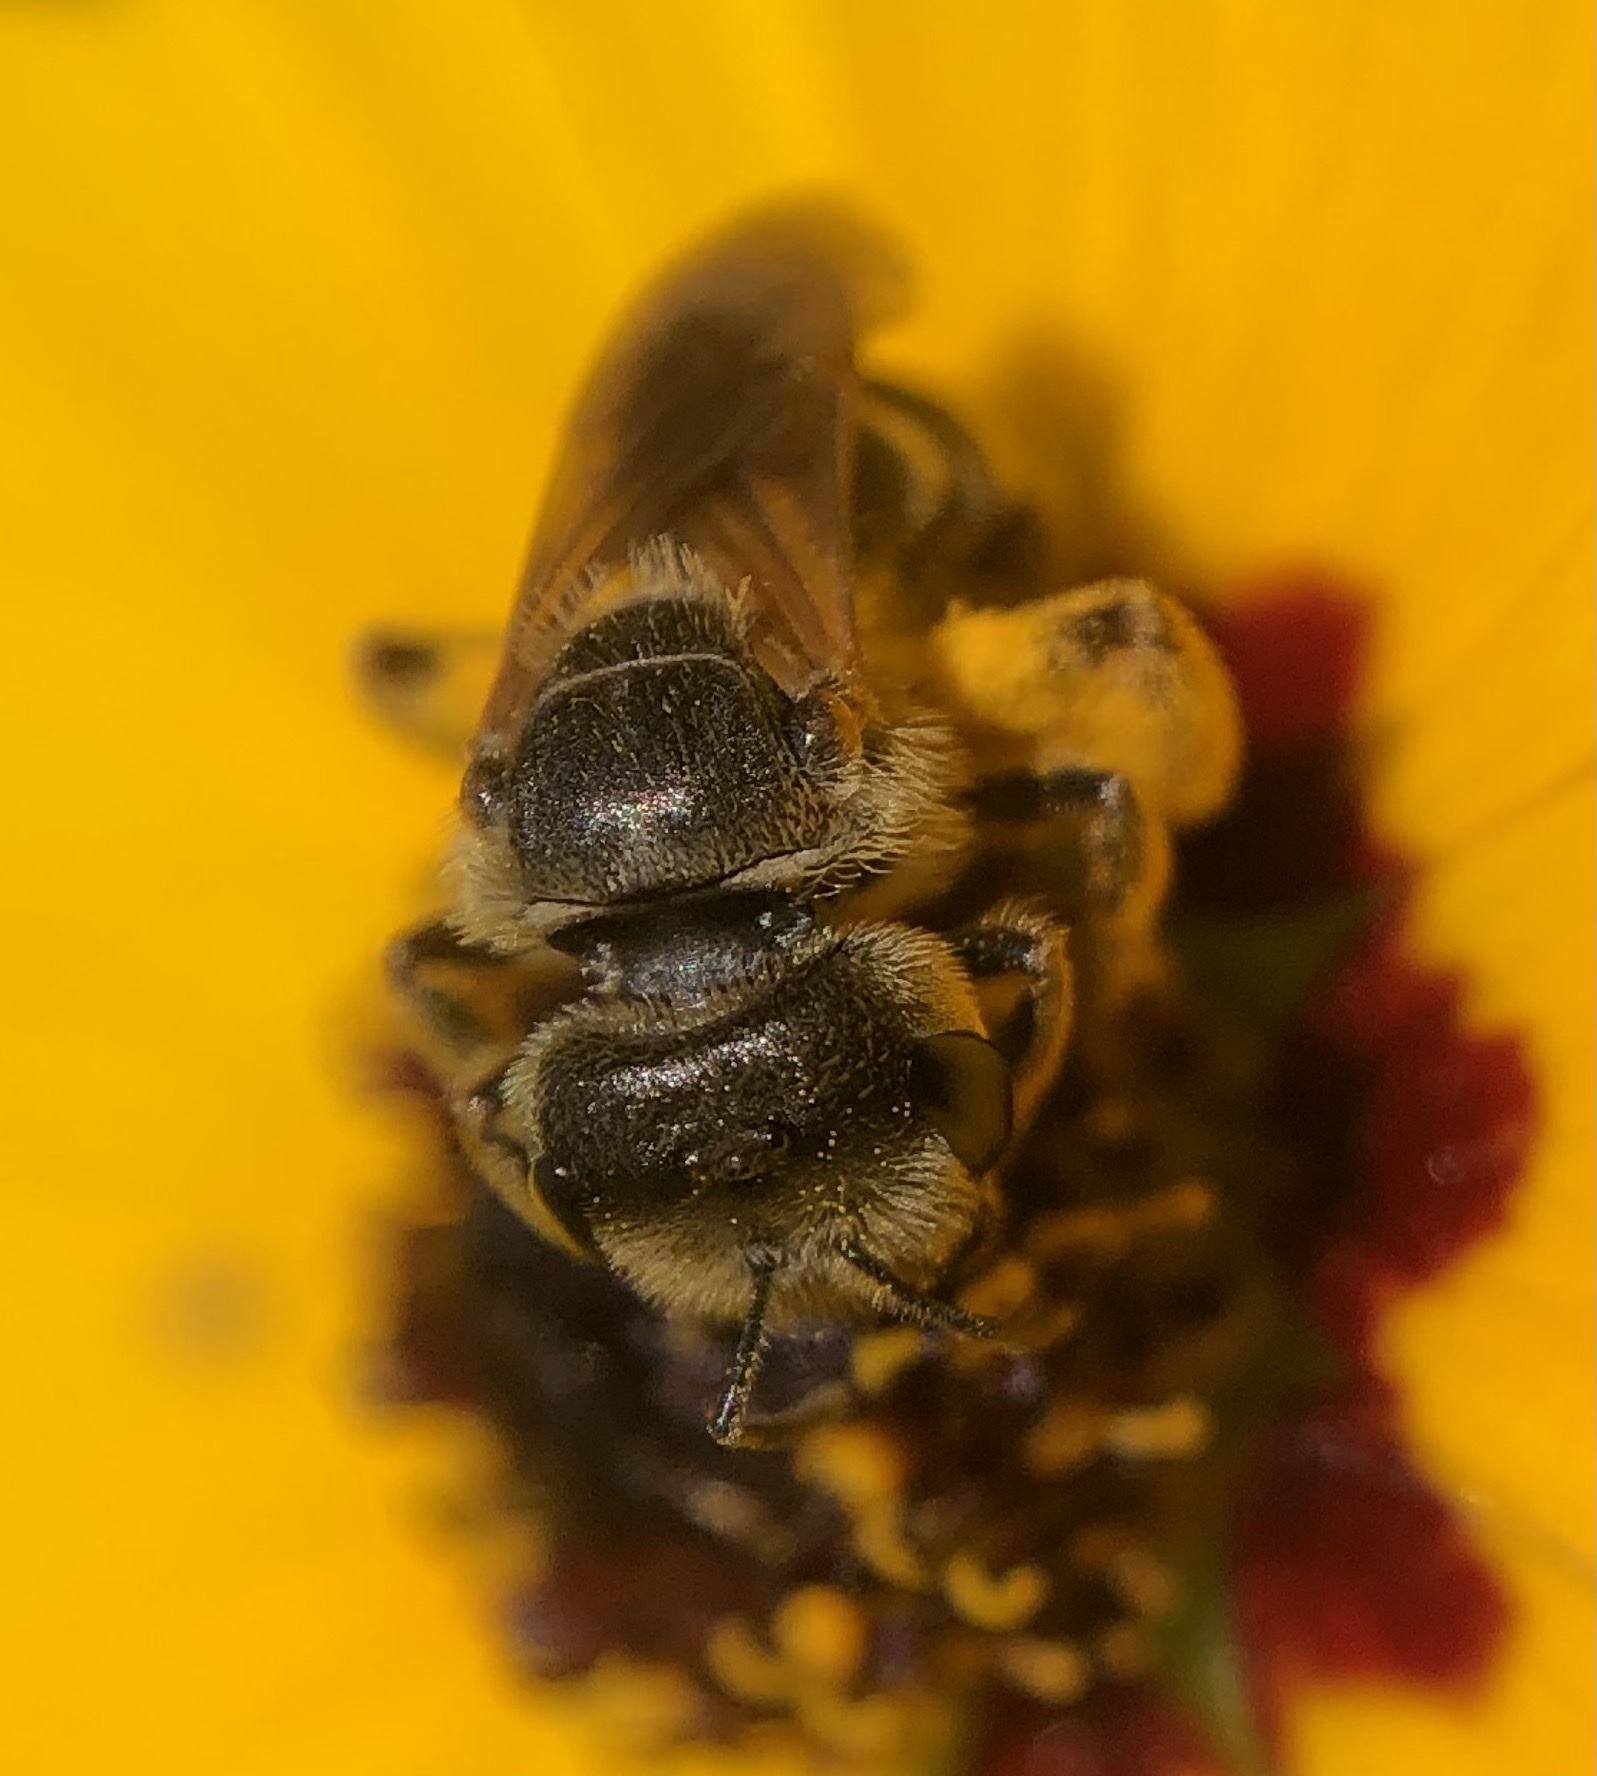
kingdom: Animalia
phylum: Arthropoda
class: Insecta
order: Hymenoptera
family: Halictidae
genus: Halictus
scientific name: Halictus poeyi
